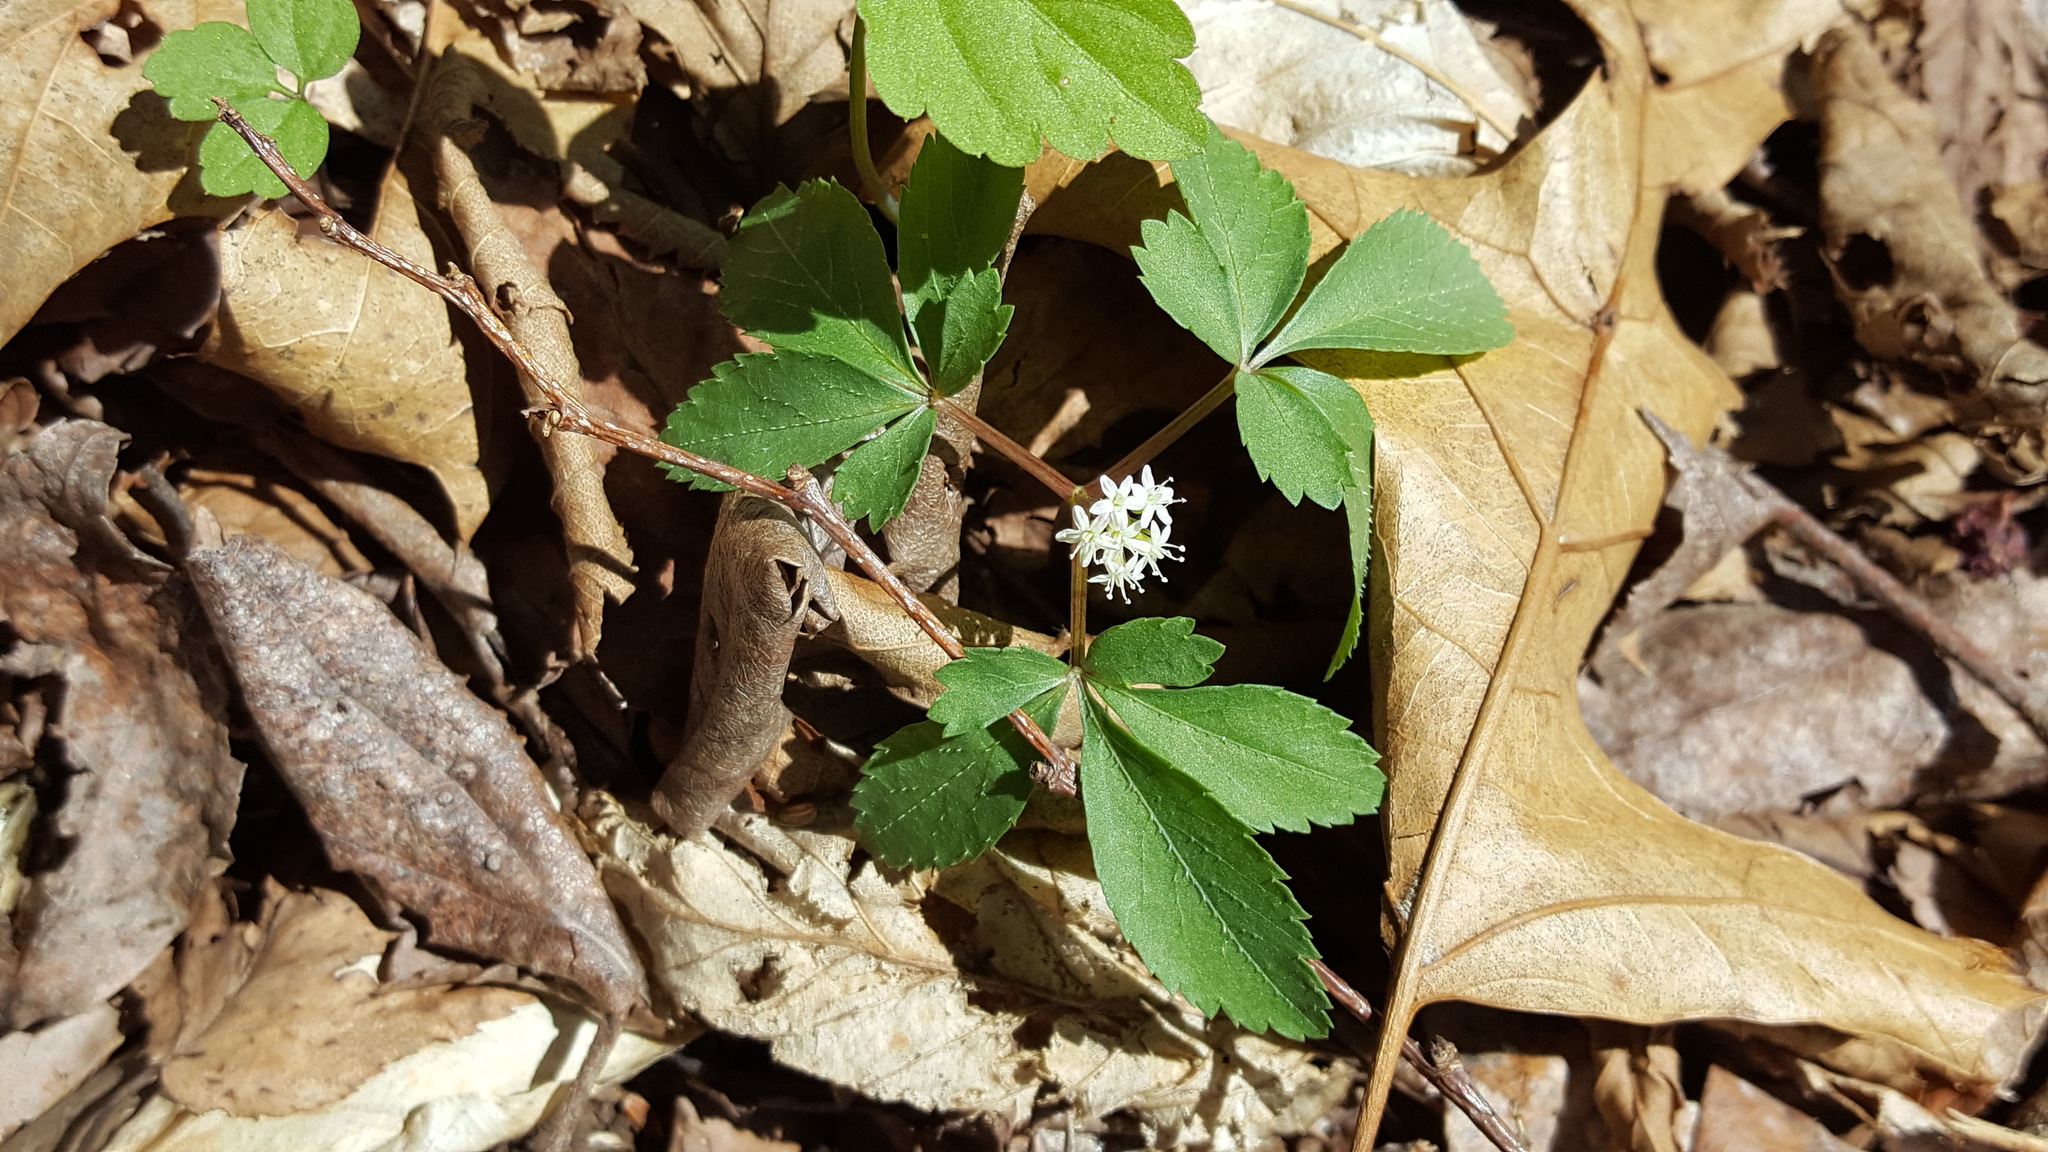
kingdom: Plantae
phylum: Tracheophyta
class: Magnoliopsida
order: Apiales
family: Araliaceae
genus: Panax
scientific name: Panax trifolius
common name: Dwarf ginseng
